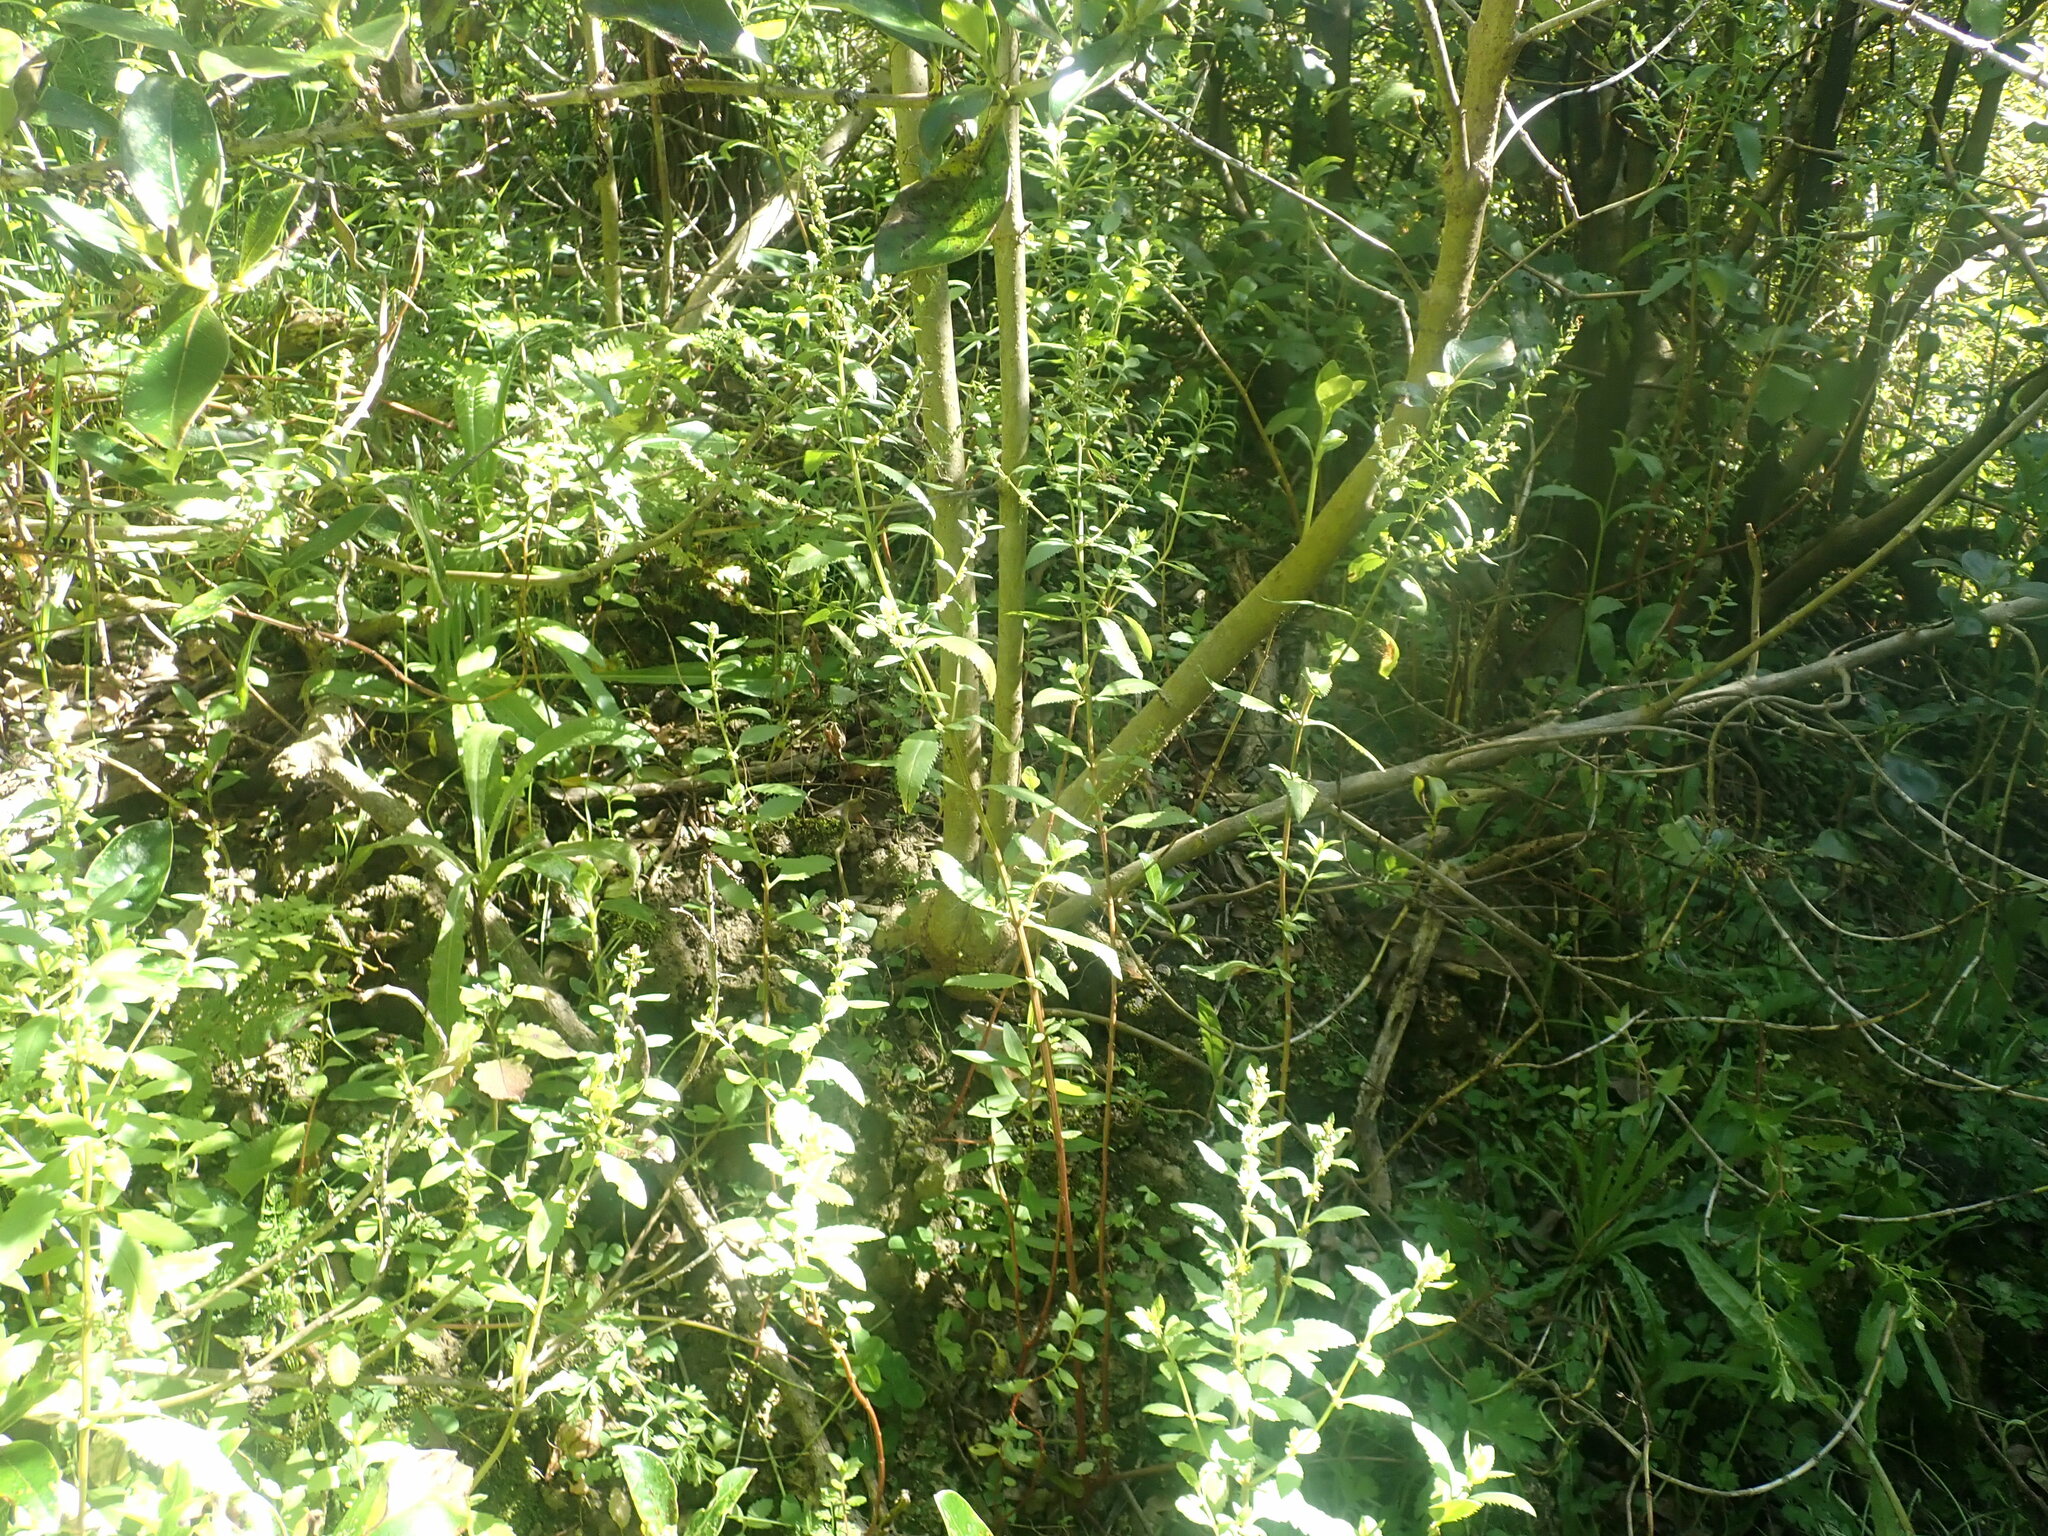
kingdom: Plantae
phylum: Tracheophyta
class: Magnoliopsida
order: Saxifragales
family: Haloragaceae
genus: Haloragis
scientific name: Haloragis erecta
